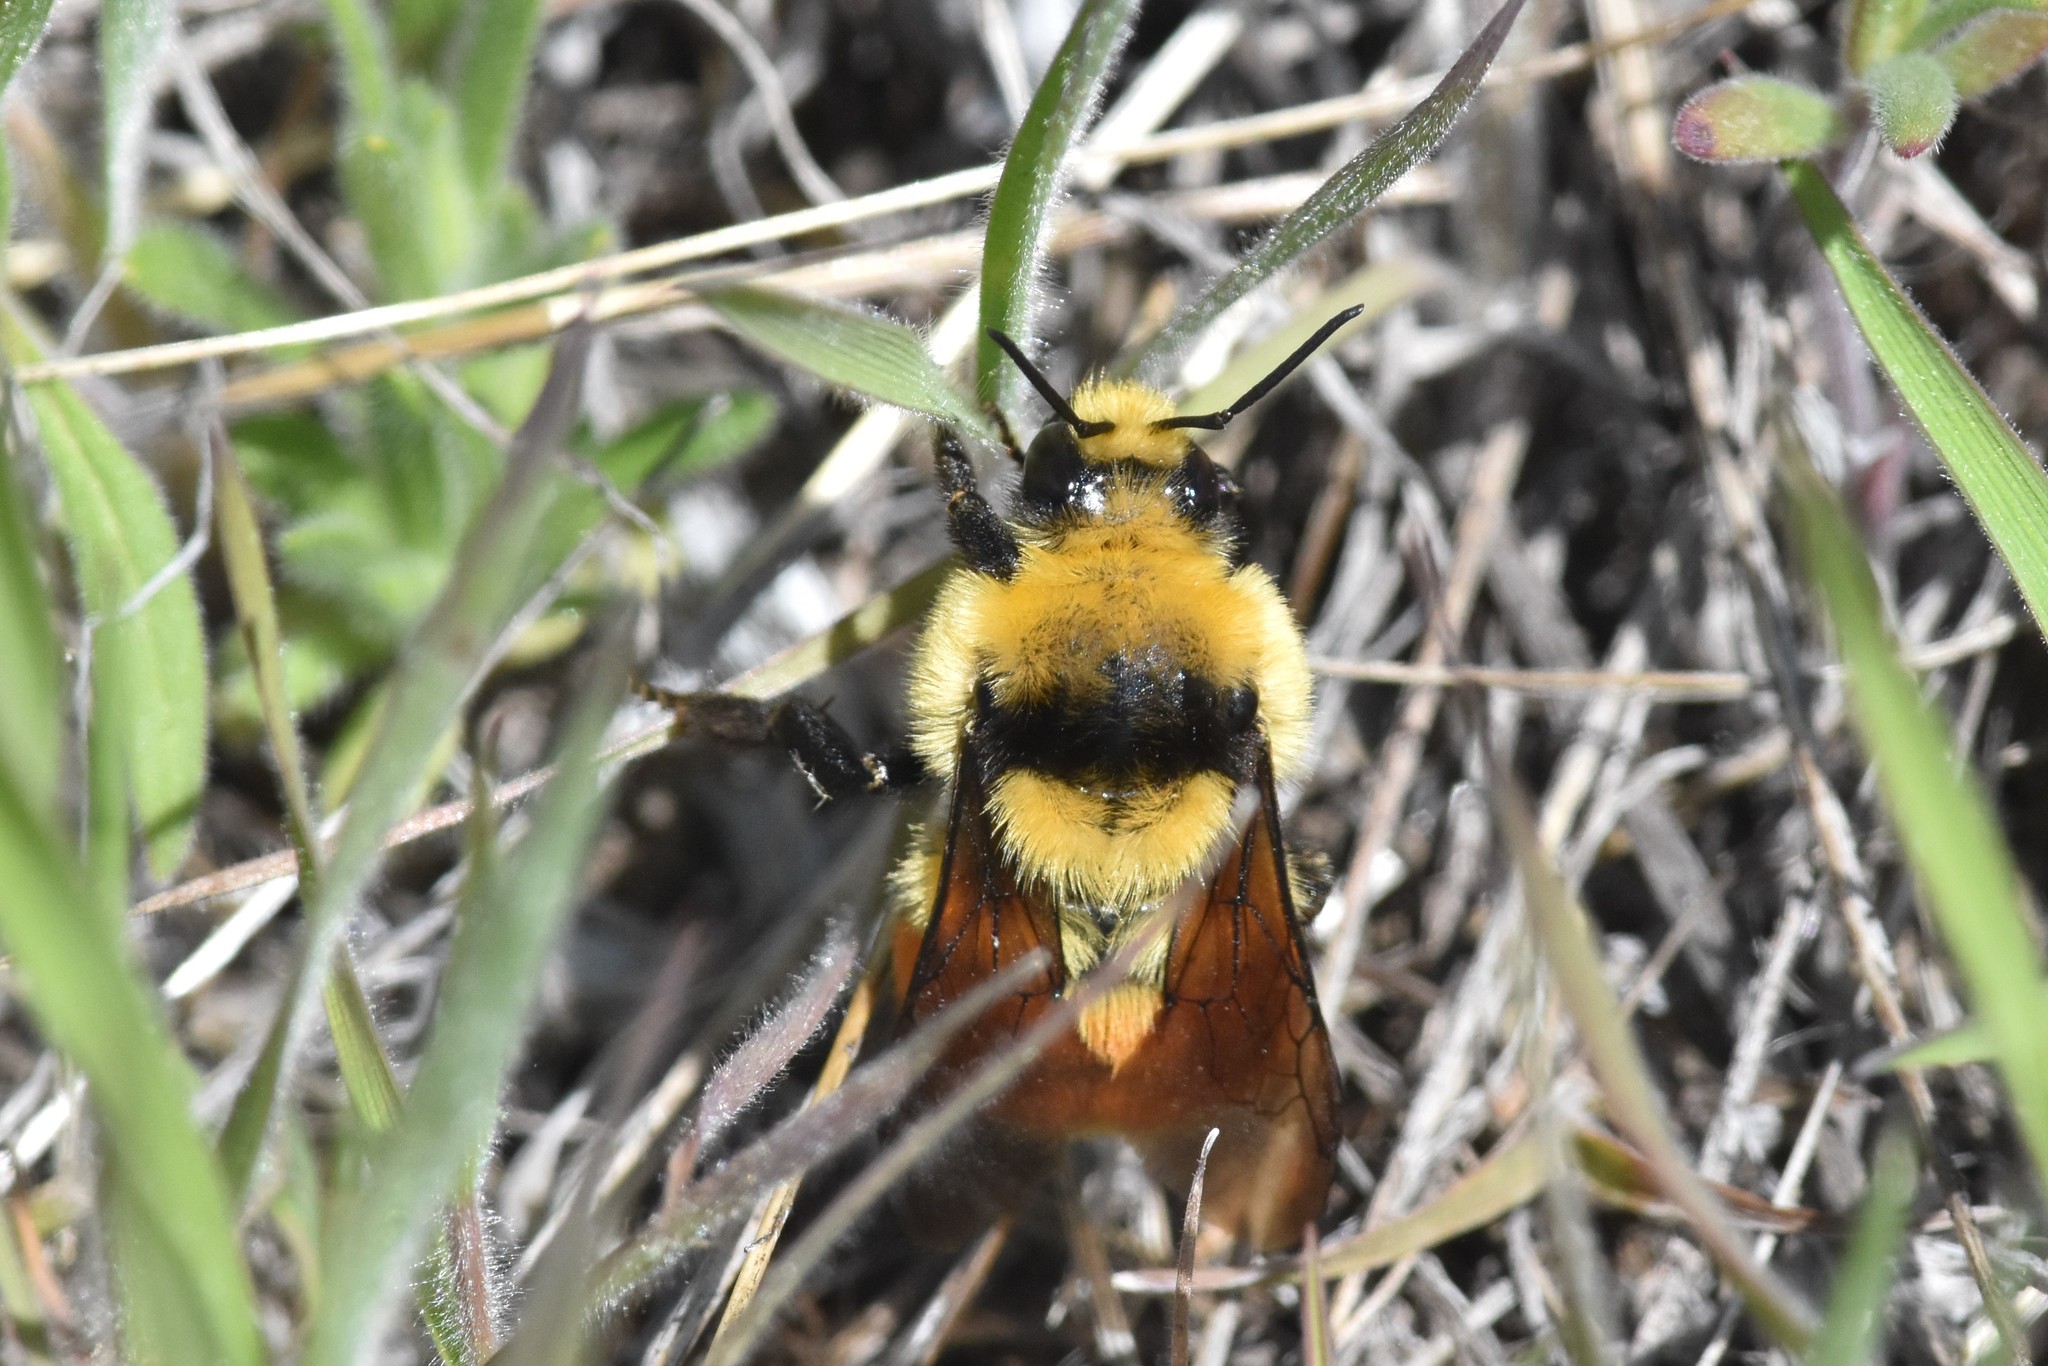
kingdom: Animalia
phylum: Arthropoda
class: Insecta
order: Hymenoptera
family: Apidae
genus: Bombus
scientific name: Bombus huntii
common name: Hunt bumble bee
